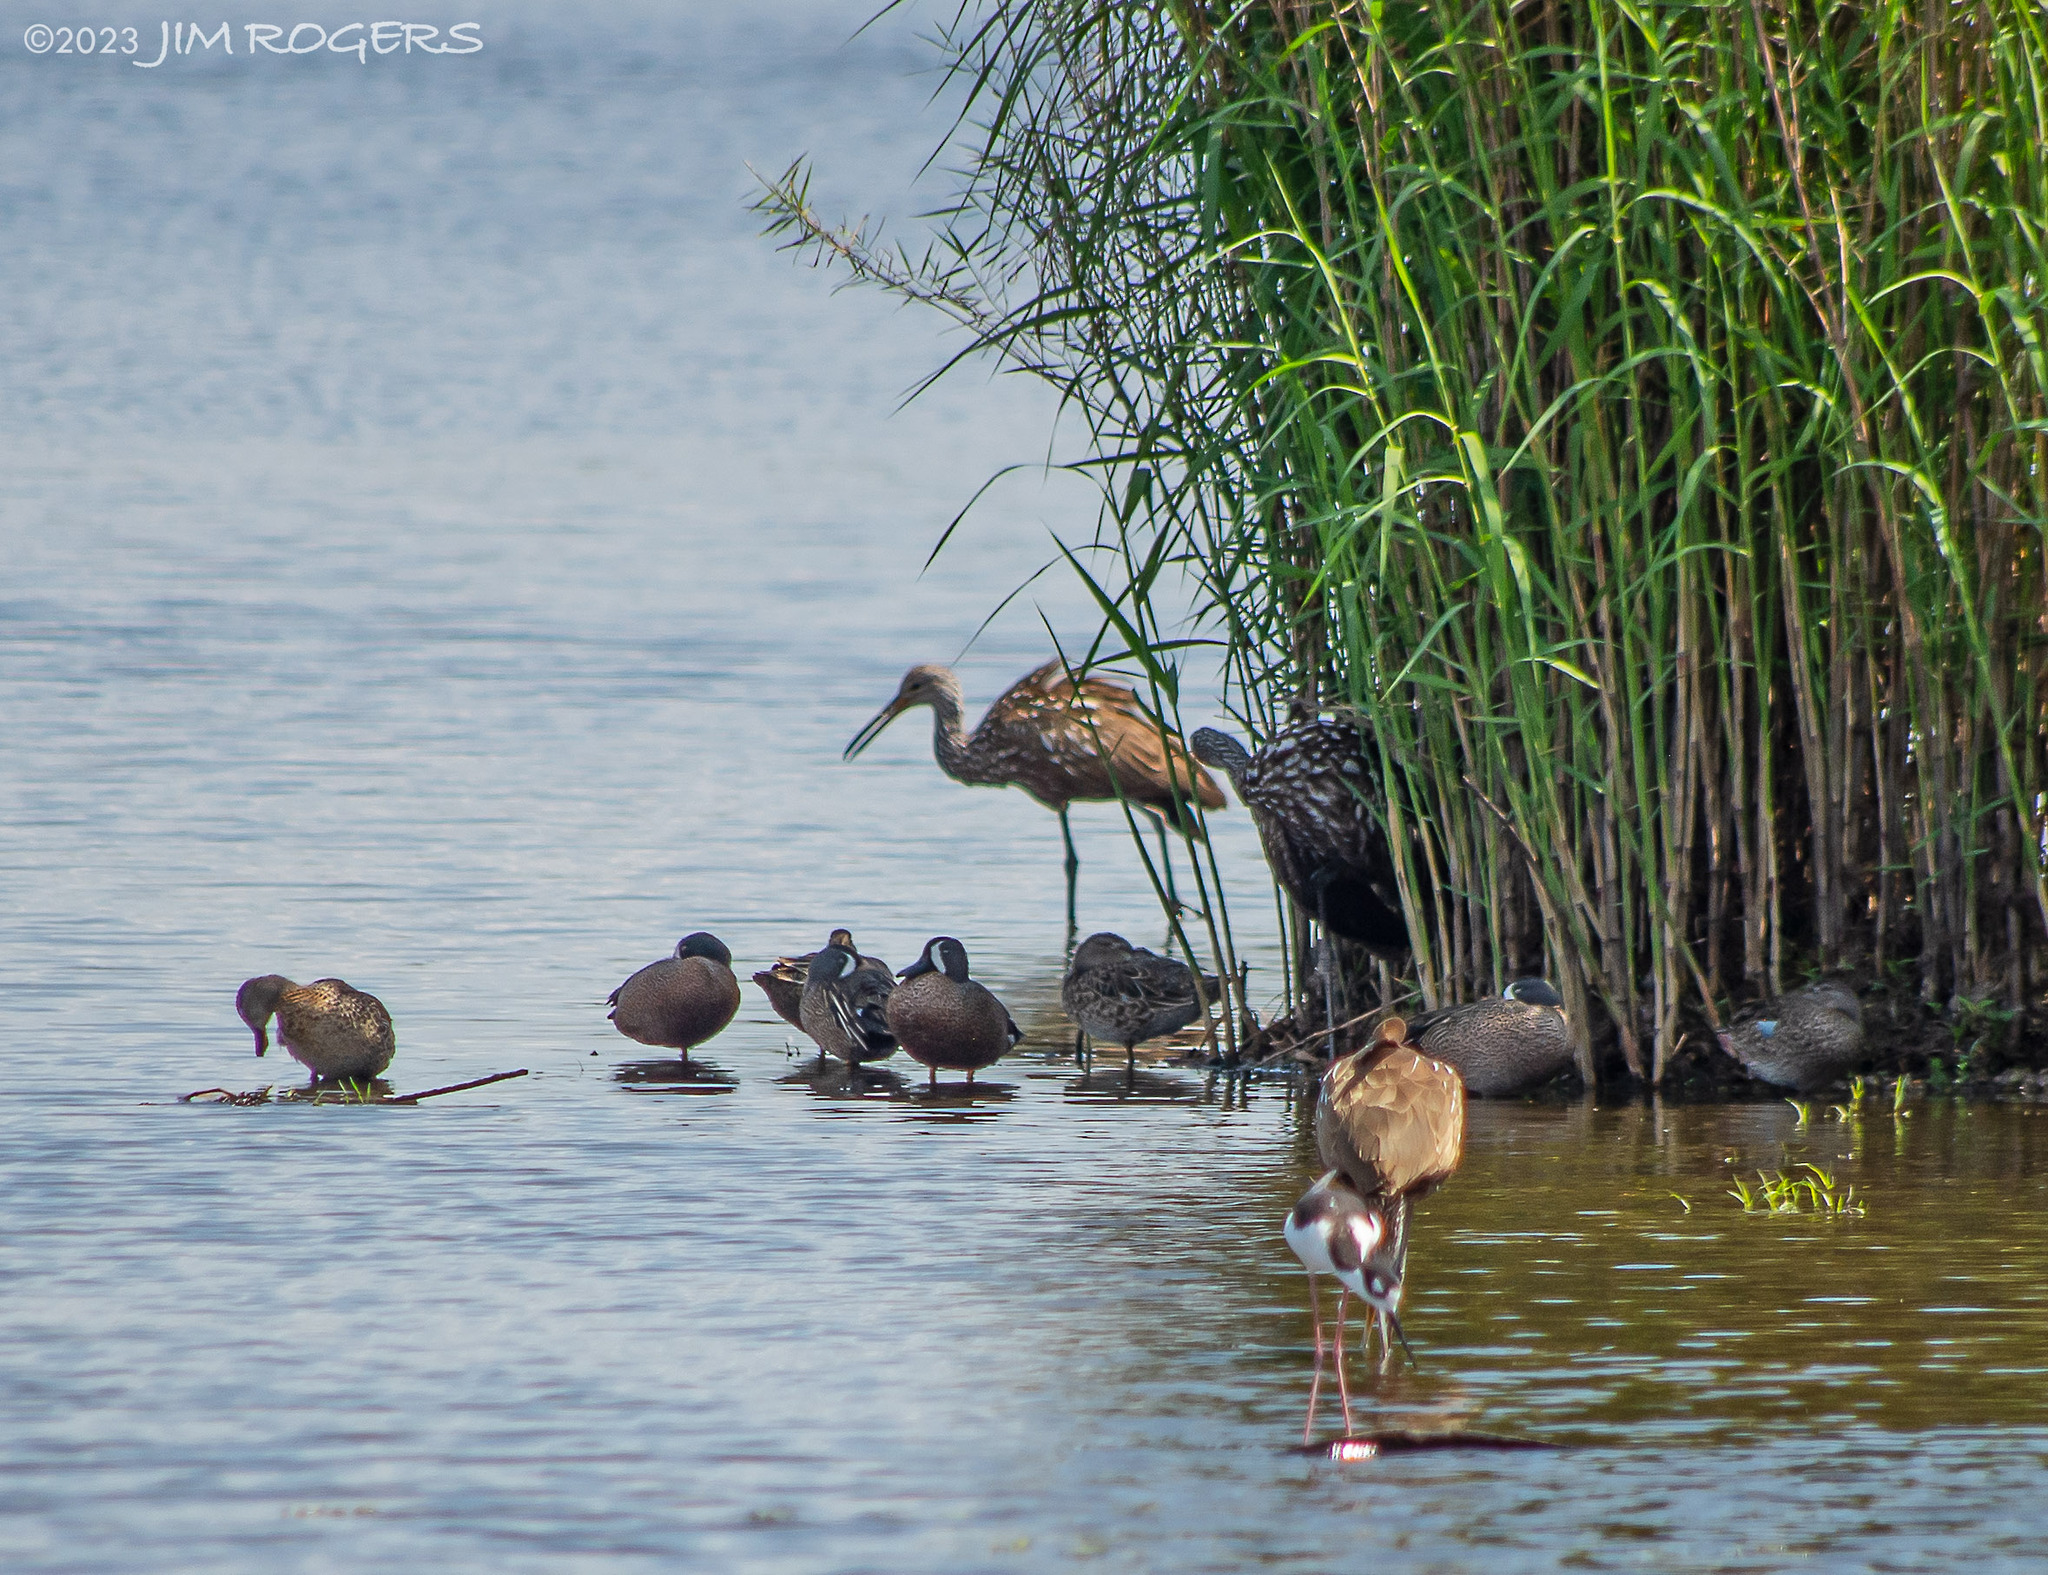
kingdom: Animalia
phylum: Chordata
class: Aves
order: Anseriformes
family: Anatidae
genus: Spatula
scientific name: Spatula discors
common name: Blue-winged teal
